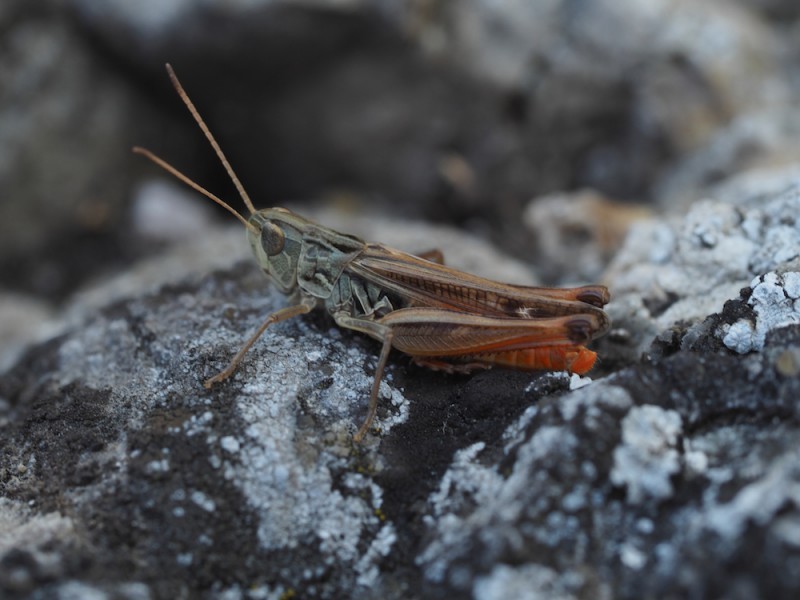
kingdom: Animalia
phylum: Arthropoda
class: Insecta
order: Orthoptera
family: Acrididae
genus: Stenobothrus
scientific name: Stenobothrus eurasius
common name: Eurasian toothed grasshopper
